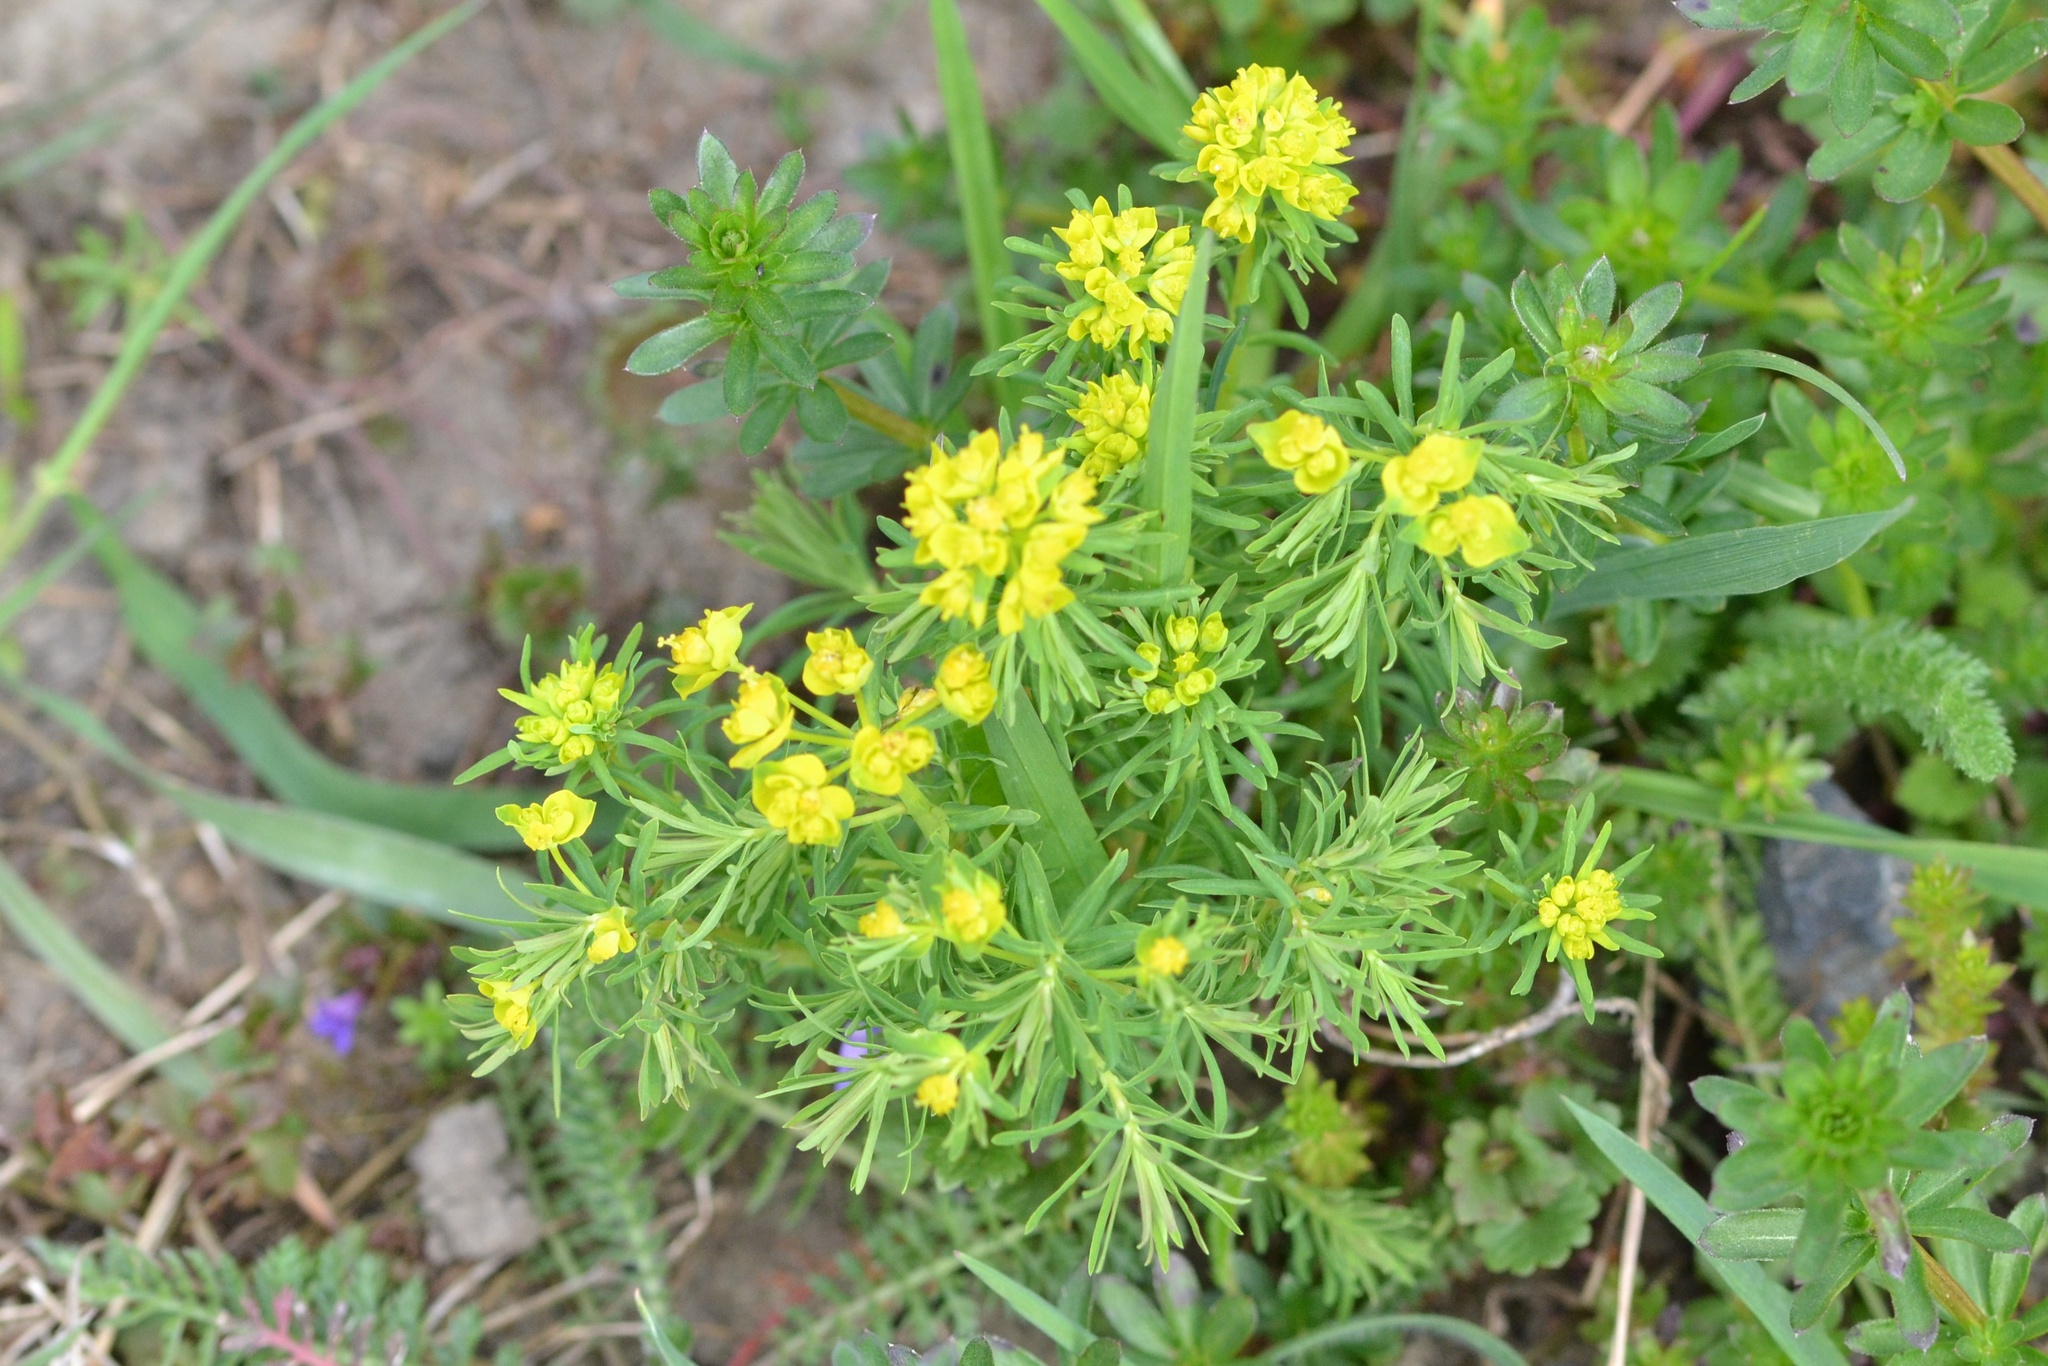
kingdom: Plantae
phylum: Tracheophyta
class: Magnoliopsida
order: Malpighiales
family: Euphorbiaceae
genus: Euphorbia
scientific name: Euphorbia cyparissias
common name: Cypress spurge
